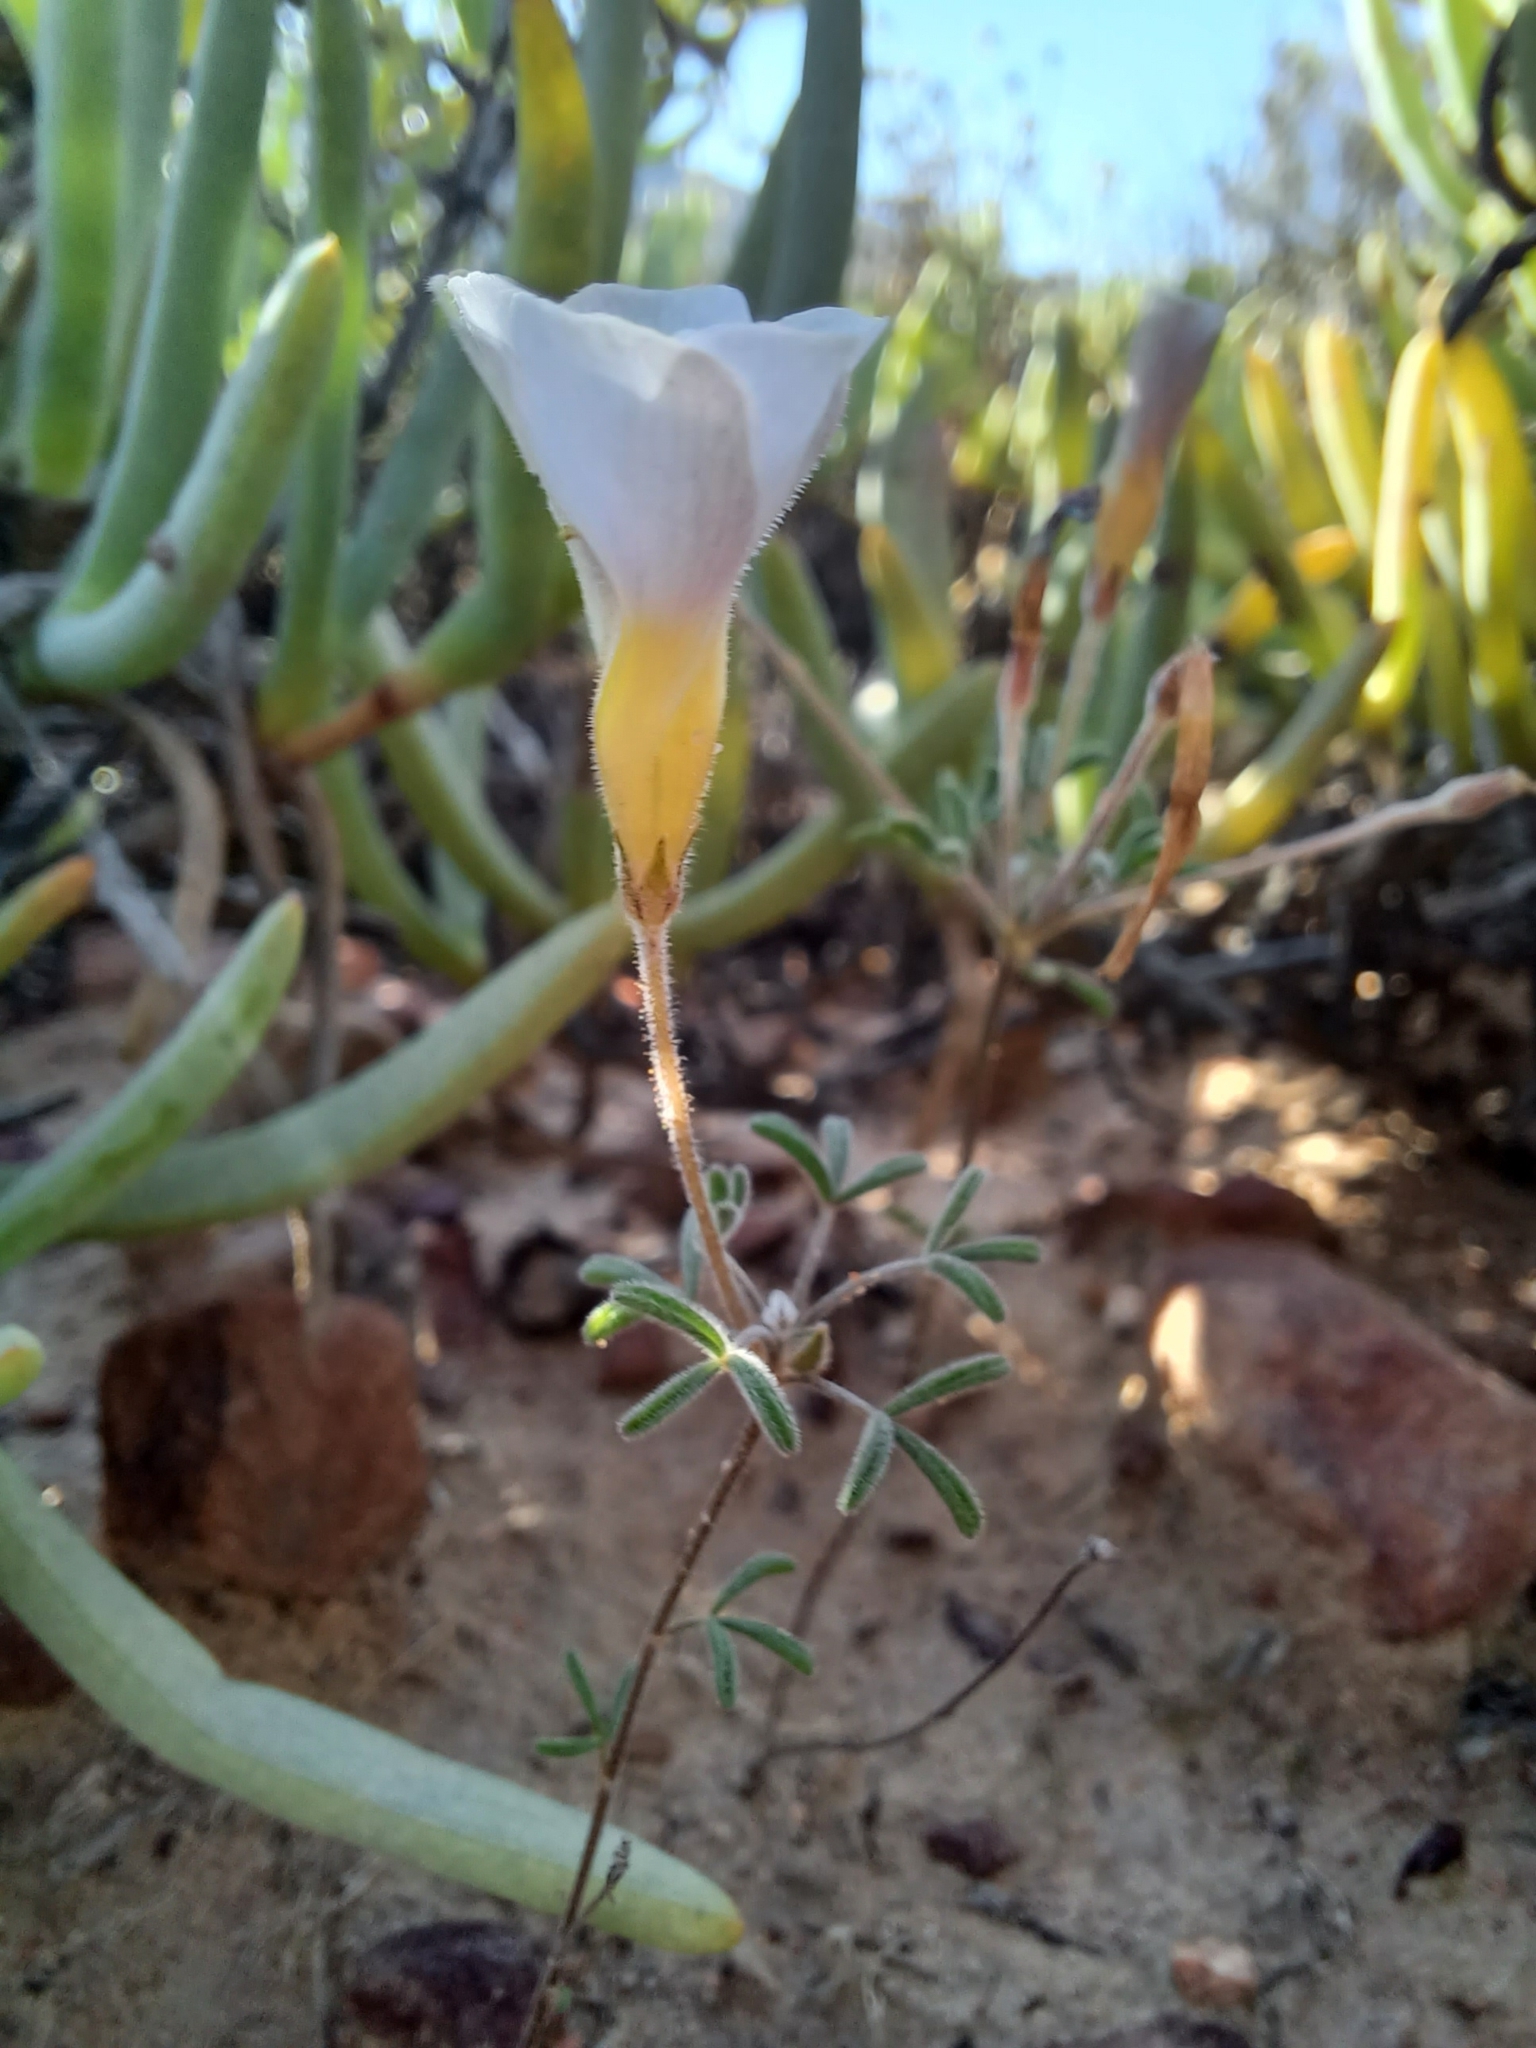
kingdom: Plantae
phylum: Tracheophyta
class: Magnoliopsida
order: Oxalidales
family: Oxalidaceae
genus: Oxalis
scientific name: Oxalis ciliaris
